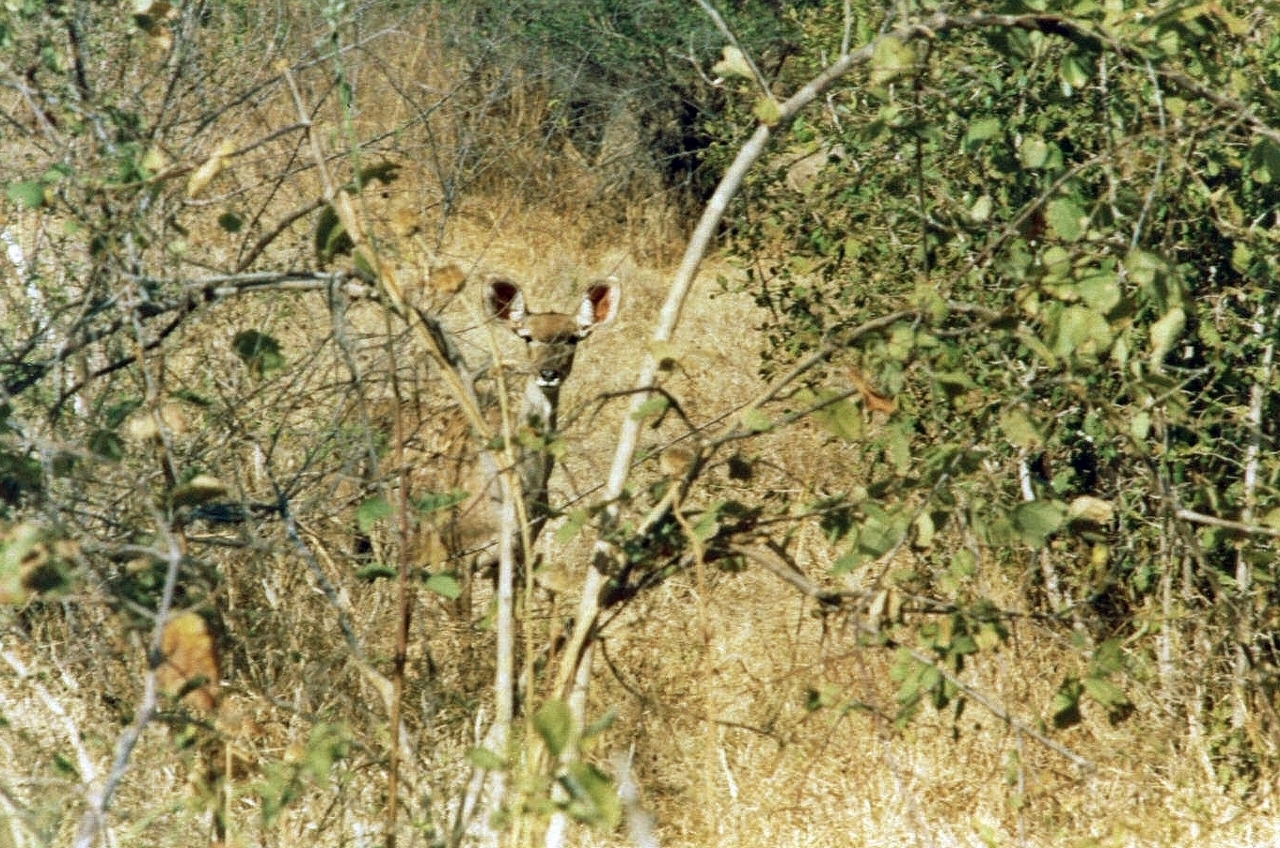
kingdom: Animalia
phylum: Chordata
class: Mammalia
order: Artiodactyla
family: Bovidae
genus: Tragelaphus
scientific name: Tragelaphus strepsiceros
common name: Greater kudu
